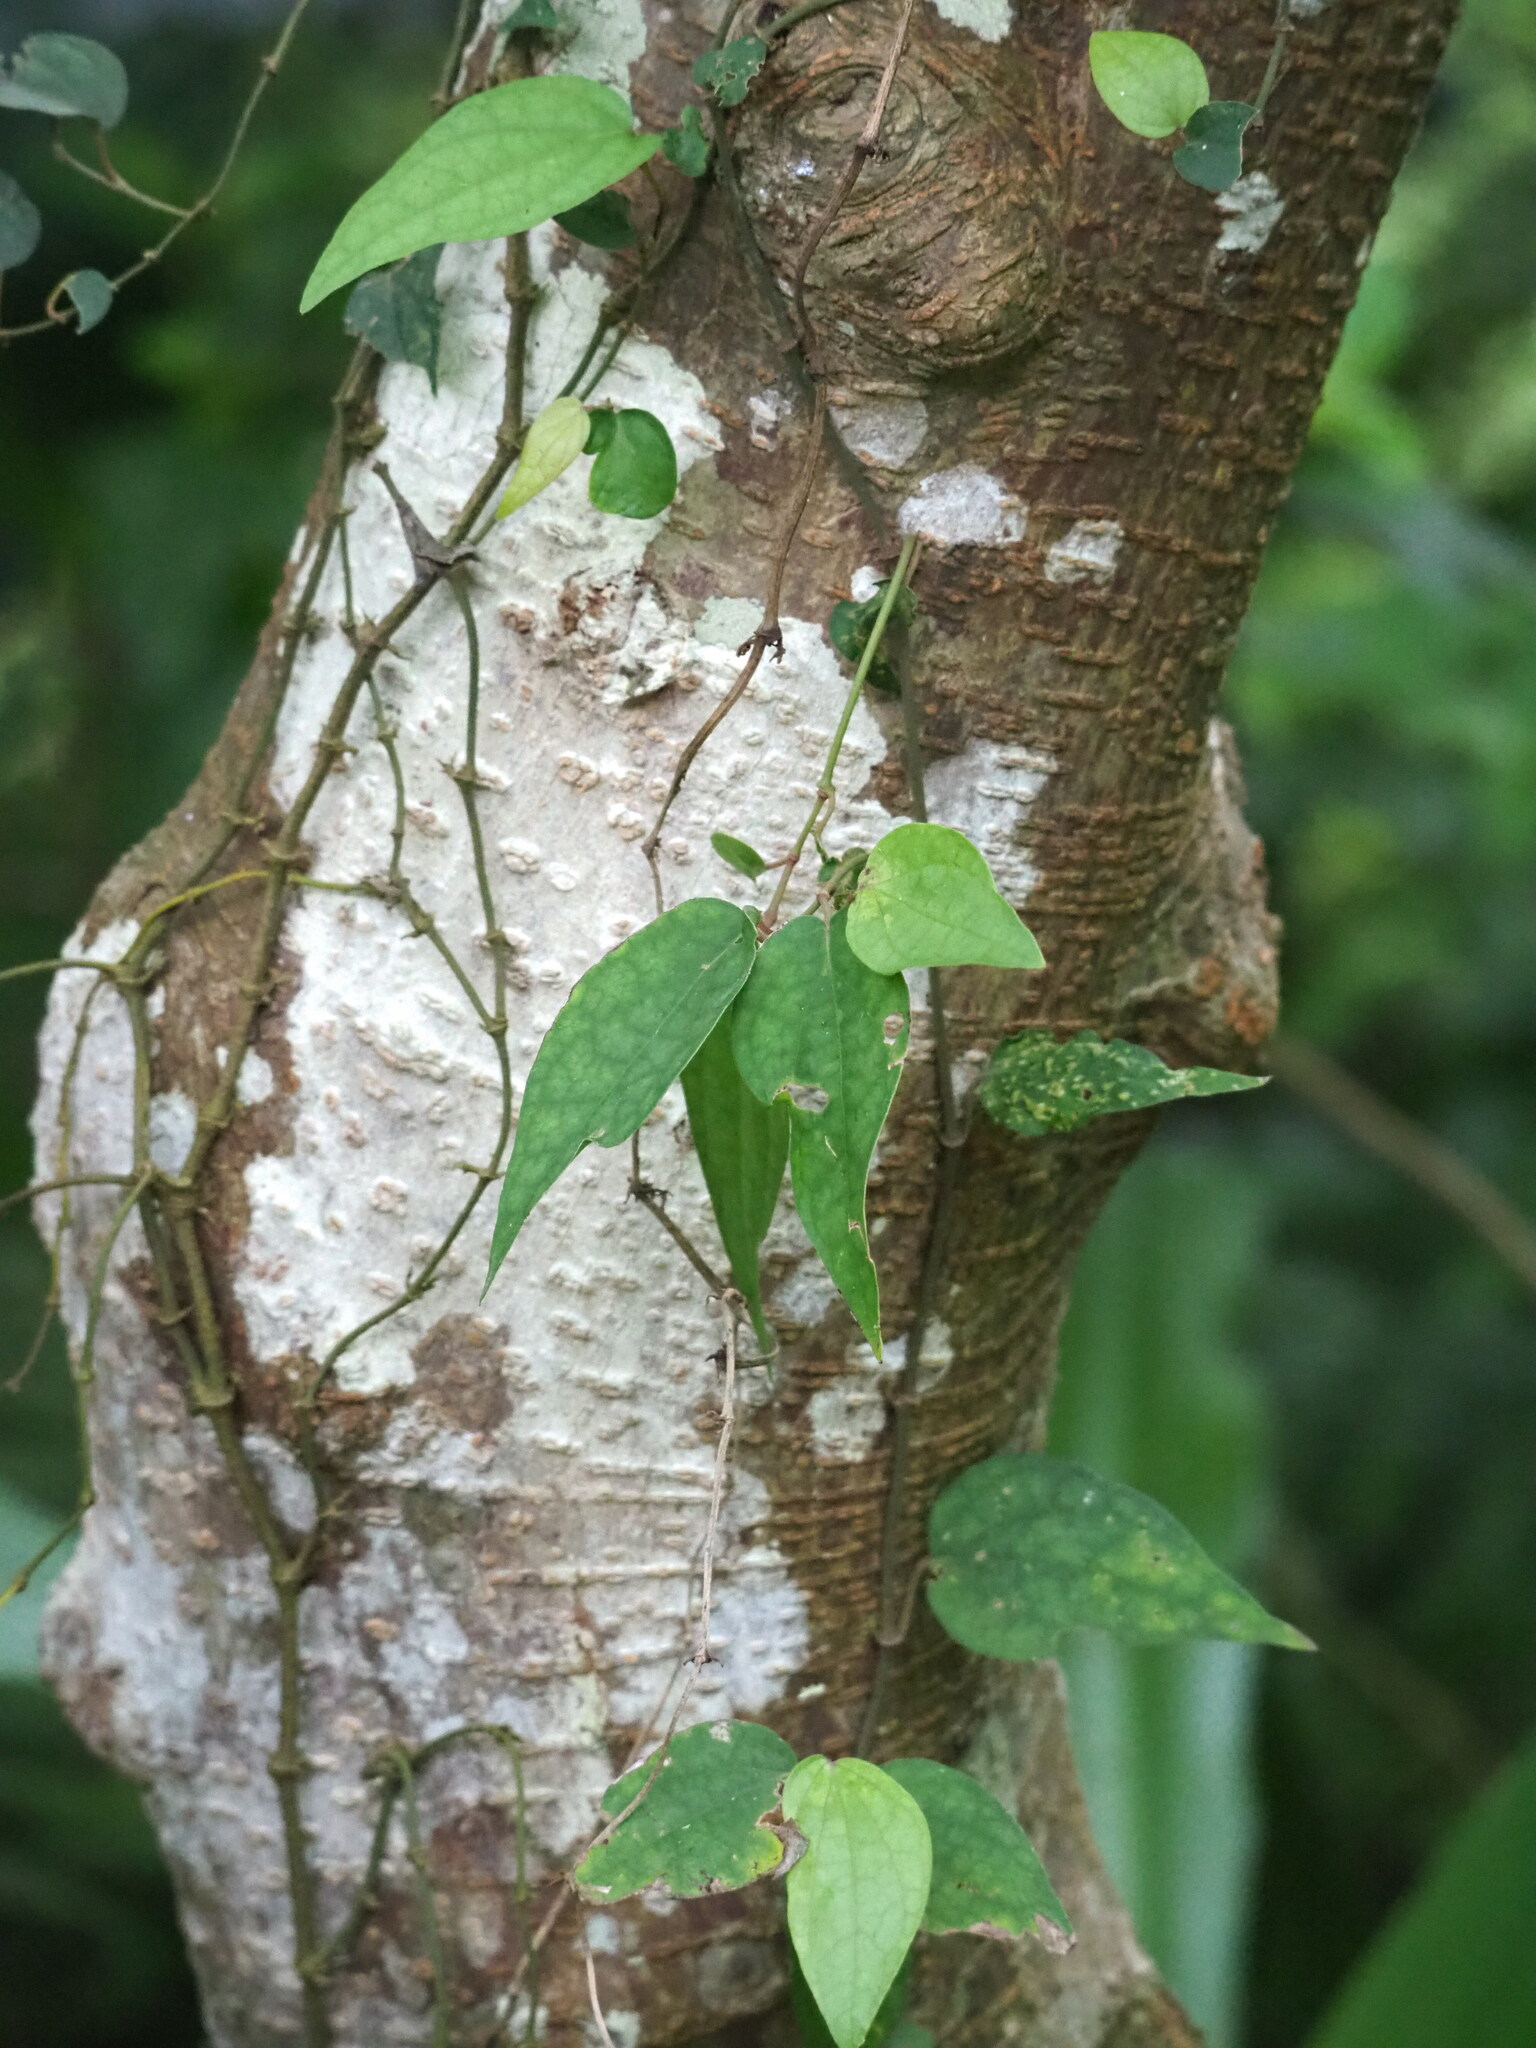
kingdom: Plantae
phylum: Tracheophyta
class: Magnoliopsida
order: Piperales
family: Piperaceae
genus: Piper
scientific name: Piper kadsura
